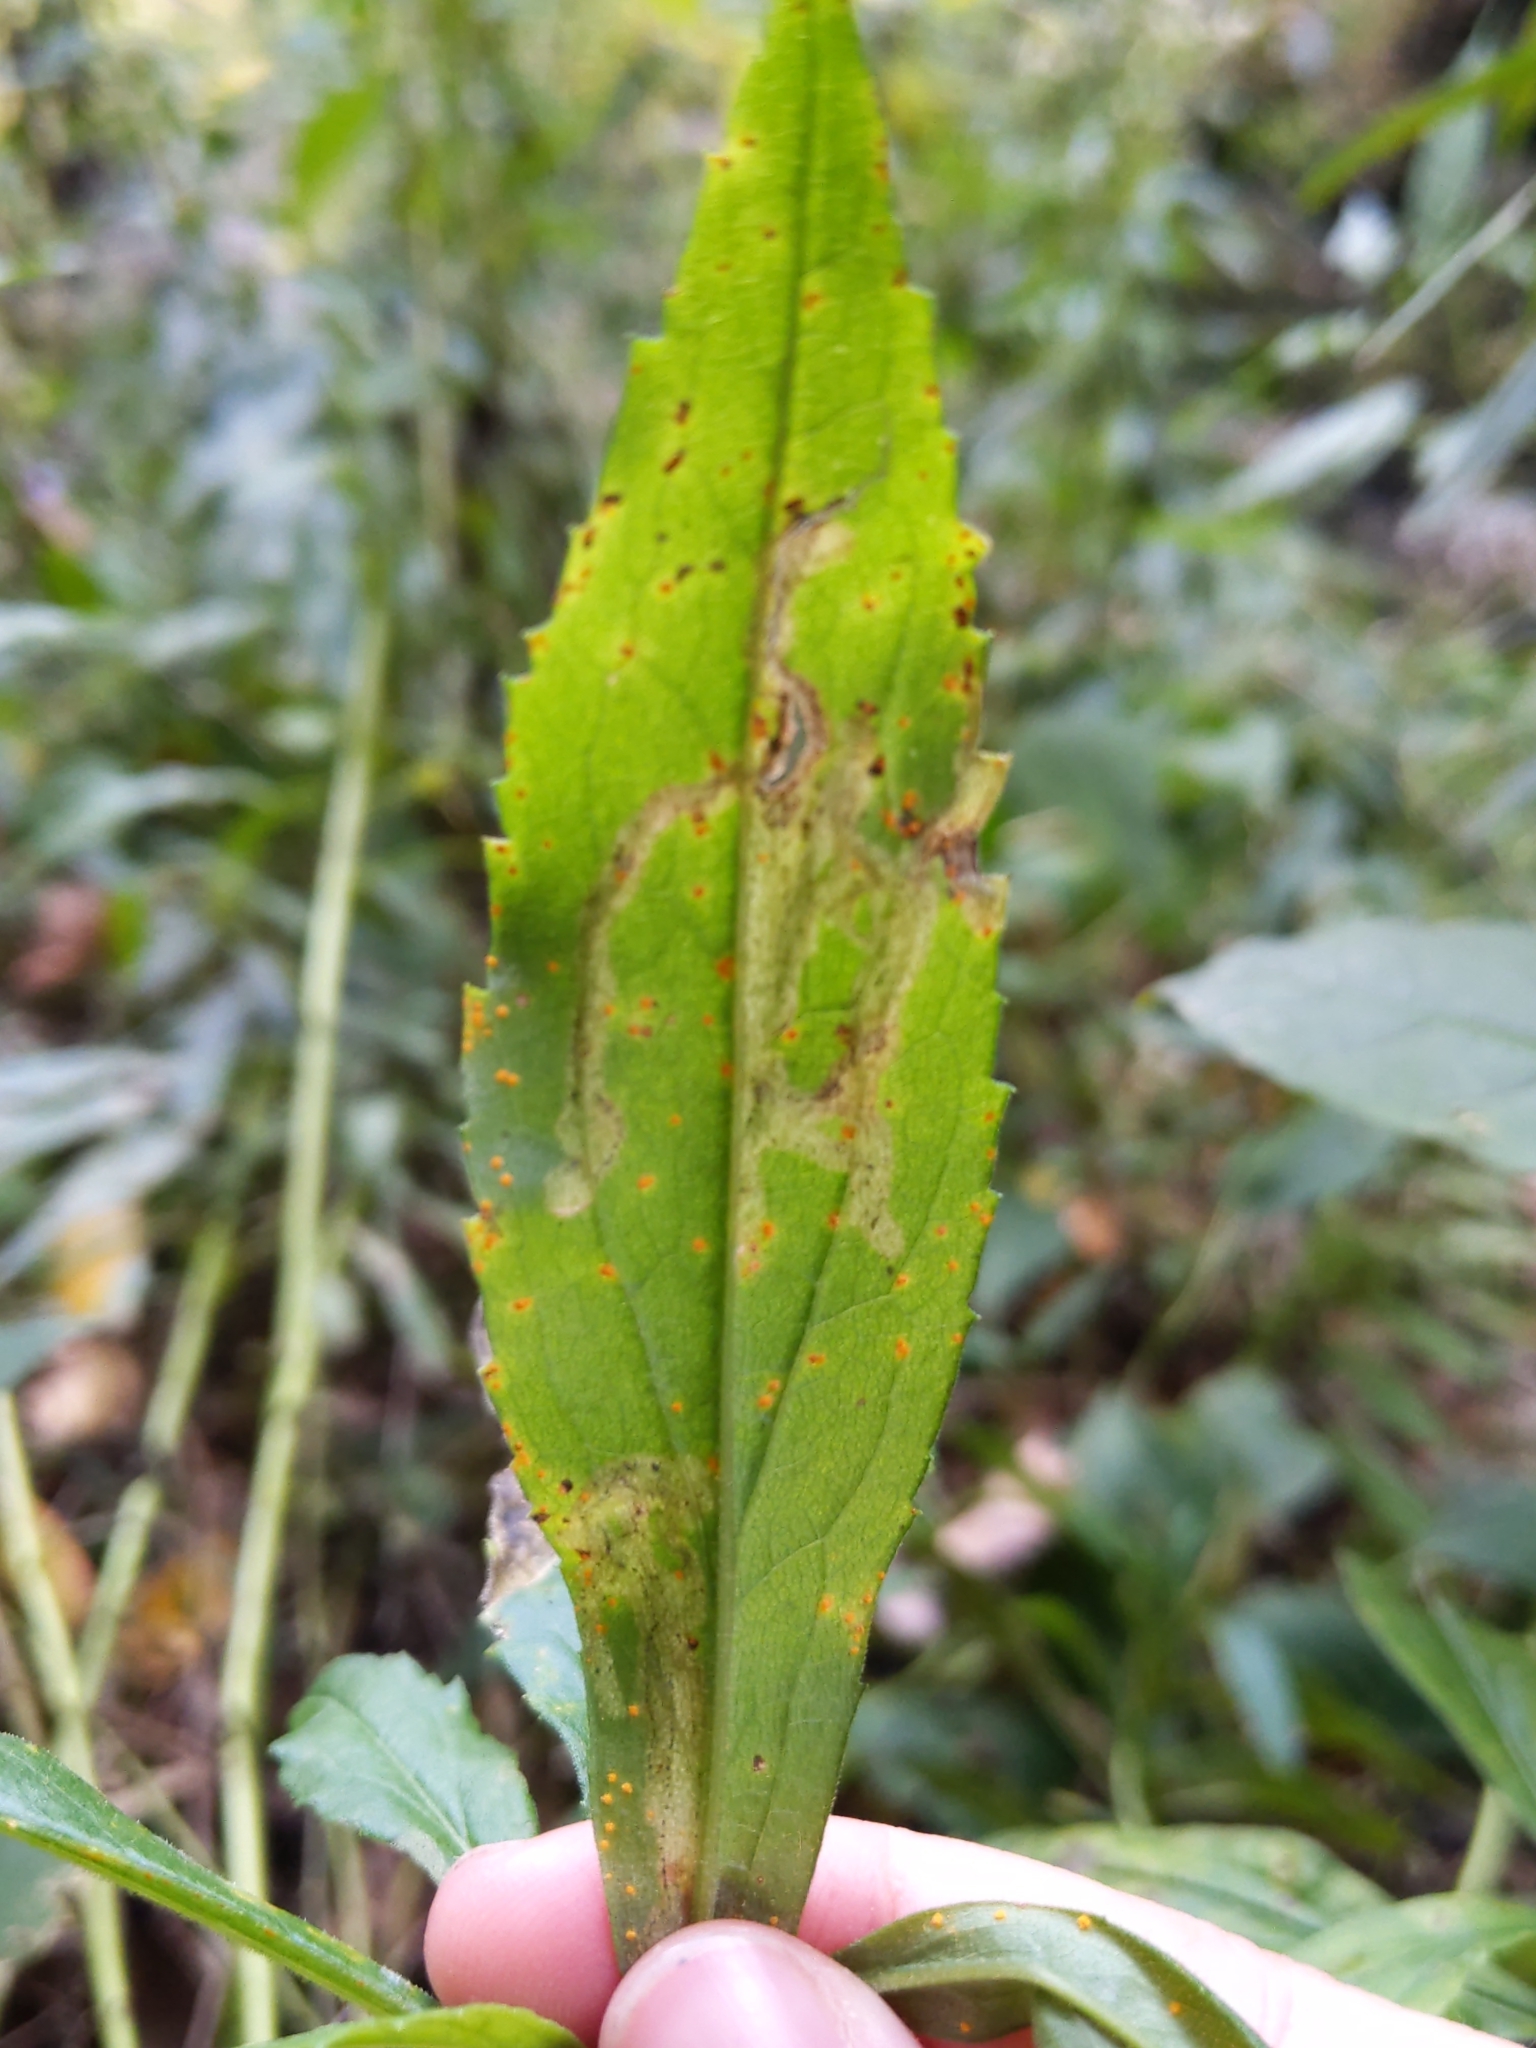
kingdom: Animalia
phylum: Arthropoda
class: Insecta
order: Diptera
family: Agromyzidae
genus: Phytomyza
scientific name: Phytomyza
